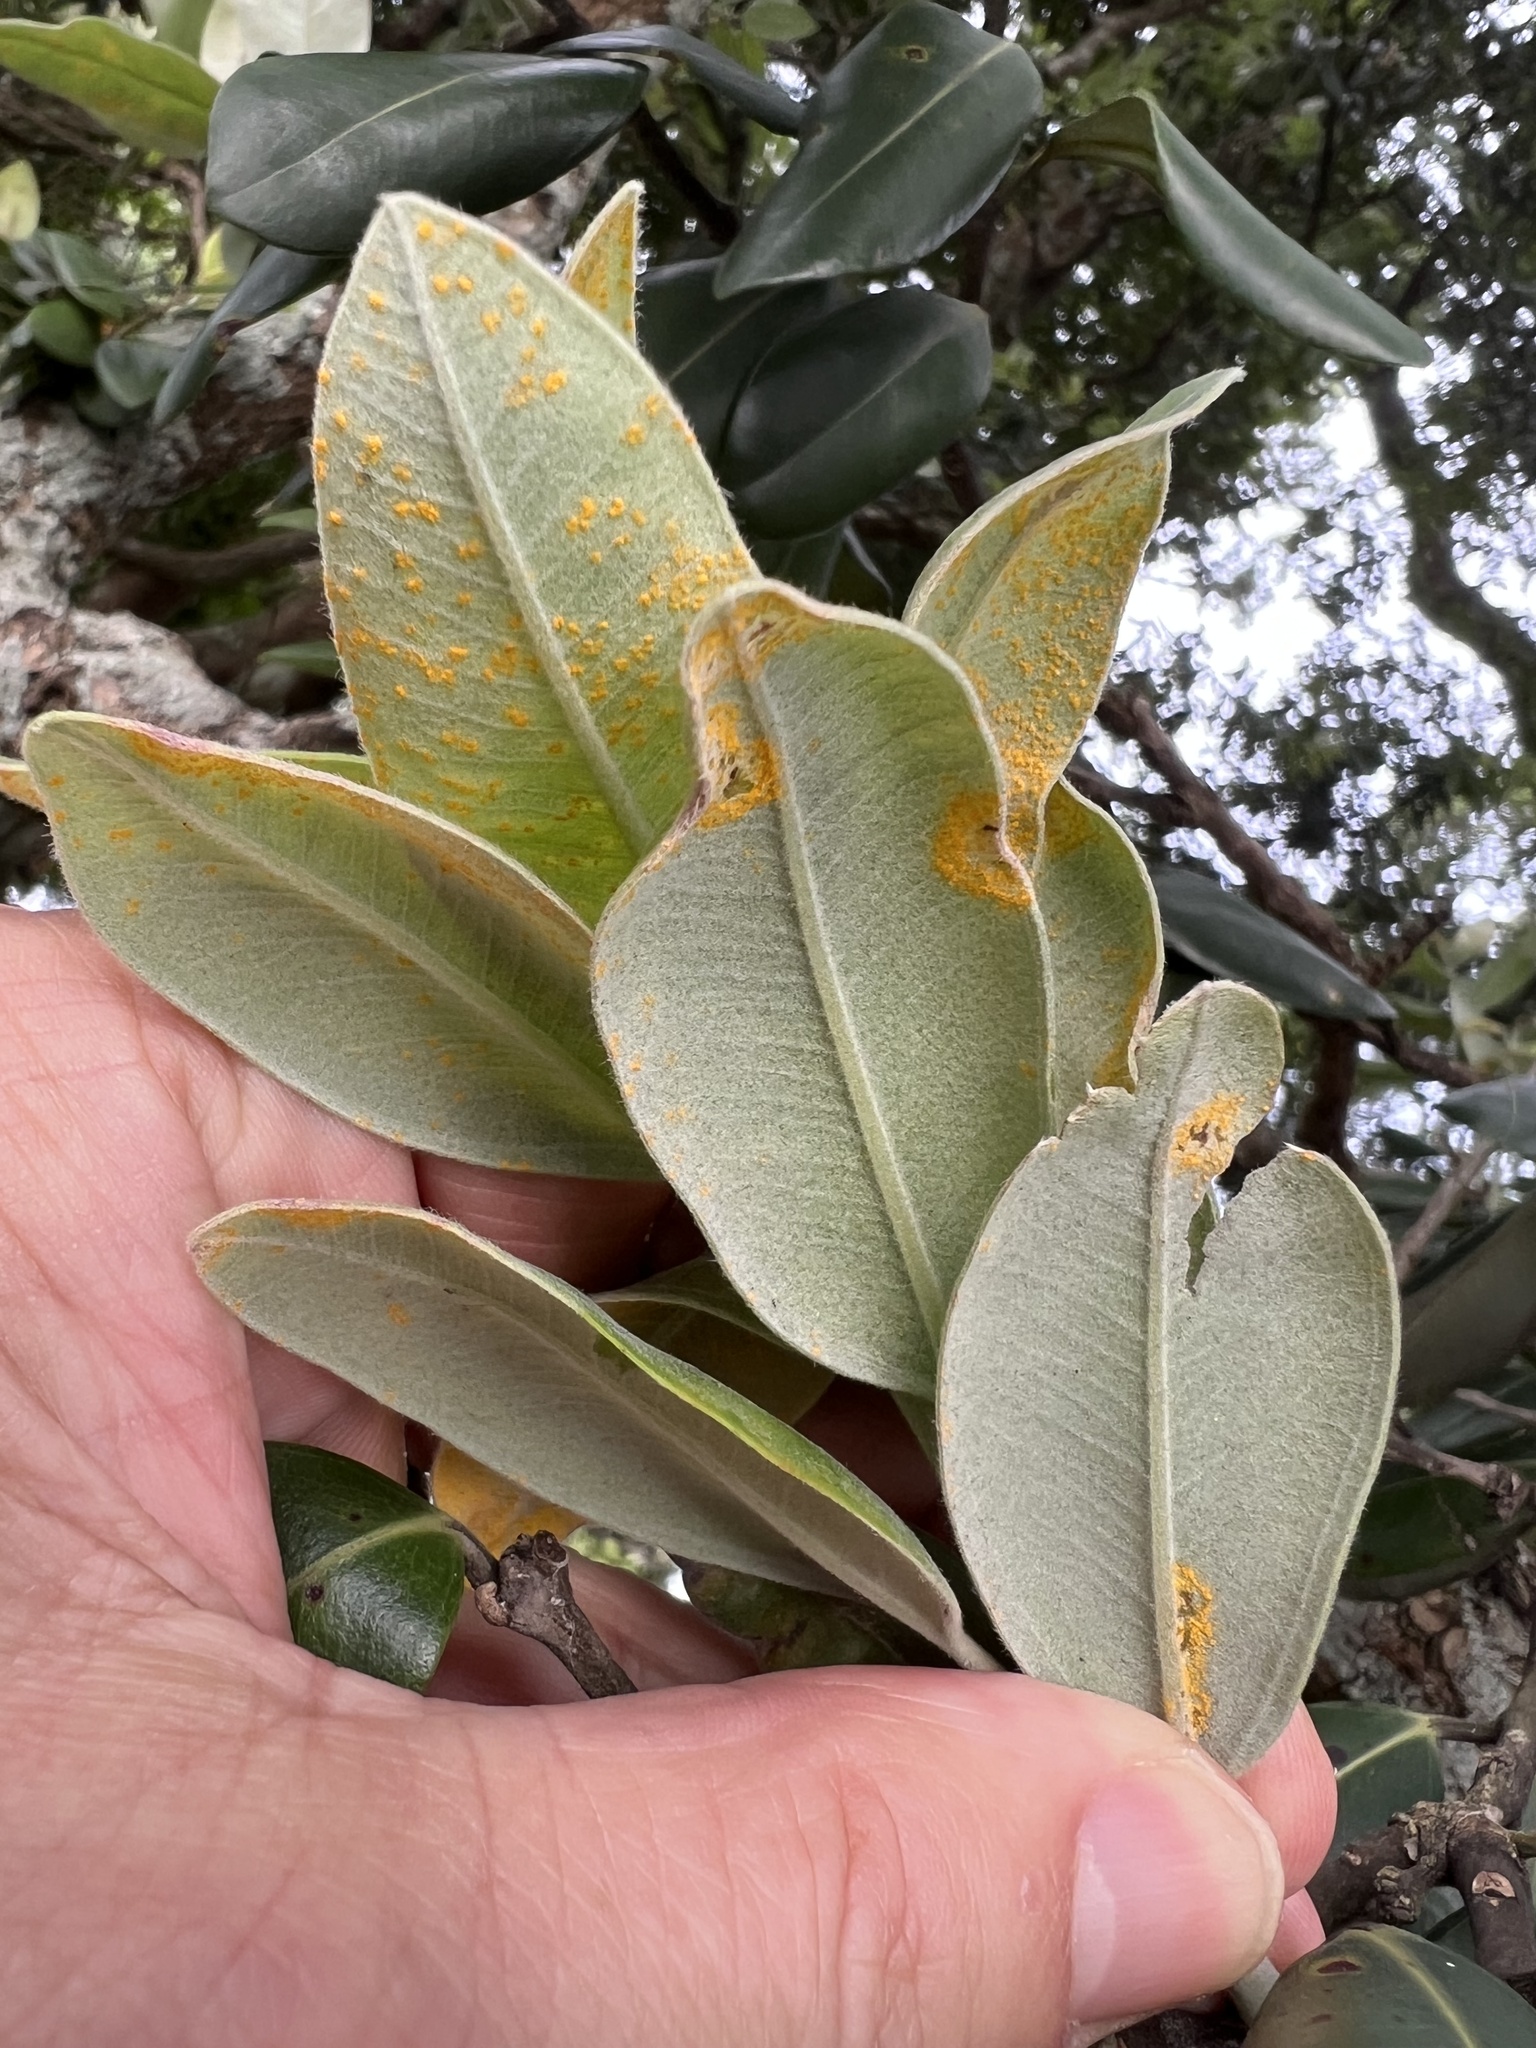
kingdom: Fungi
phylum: Basidiomycota
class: Pucciniomycetes
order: Pucciniales
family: Sphaerophragmiaceae
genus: Austropuccinia
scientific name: Austropuccinia psidii
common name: Myrtle rust
